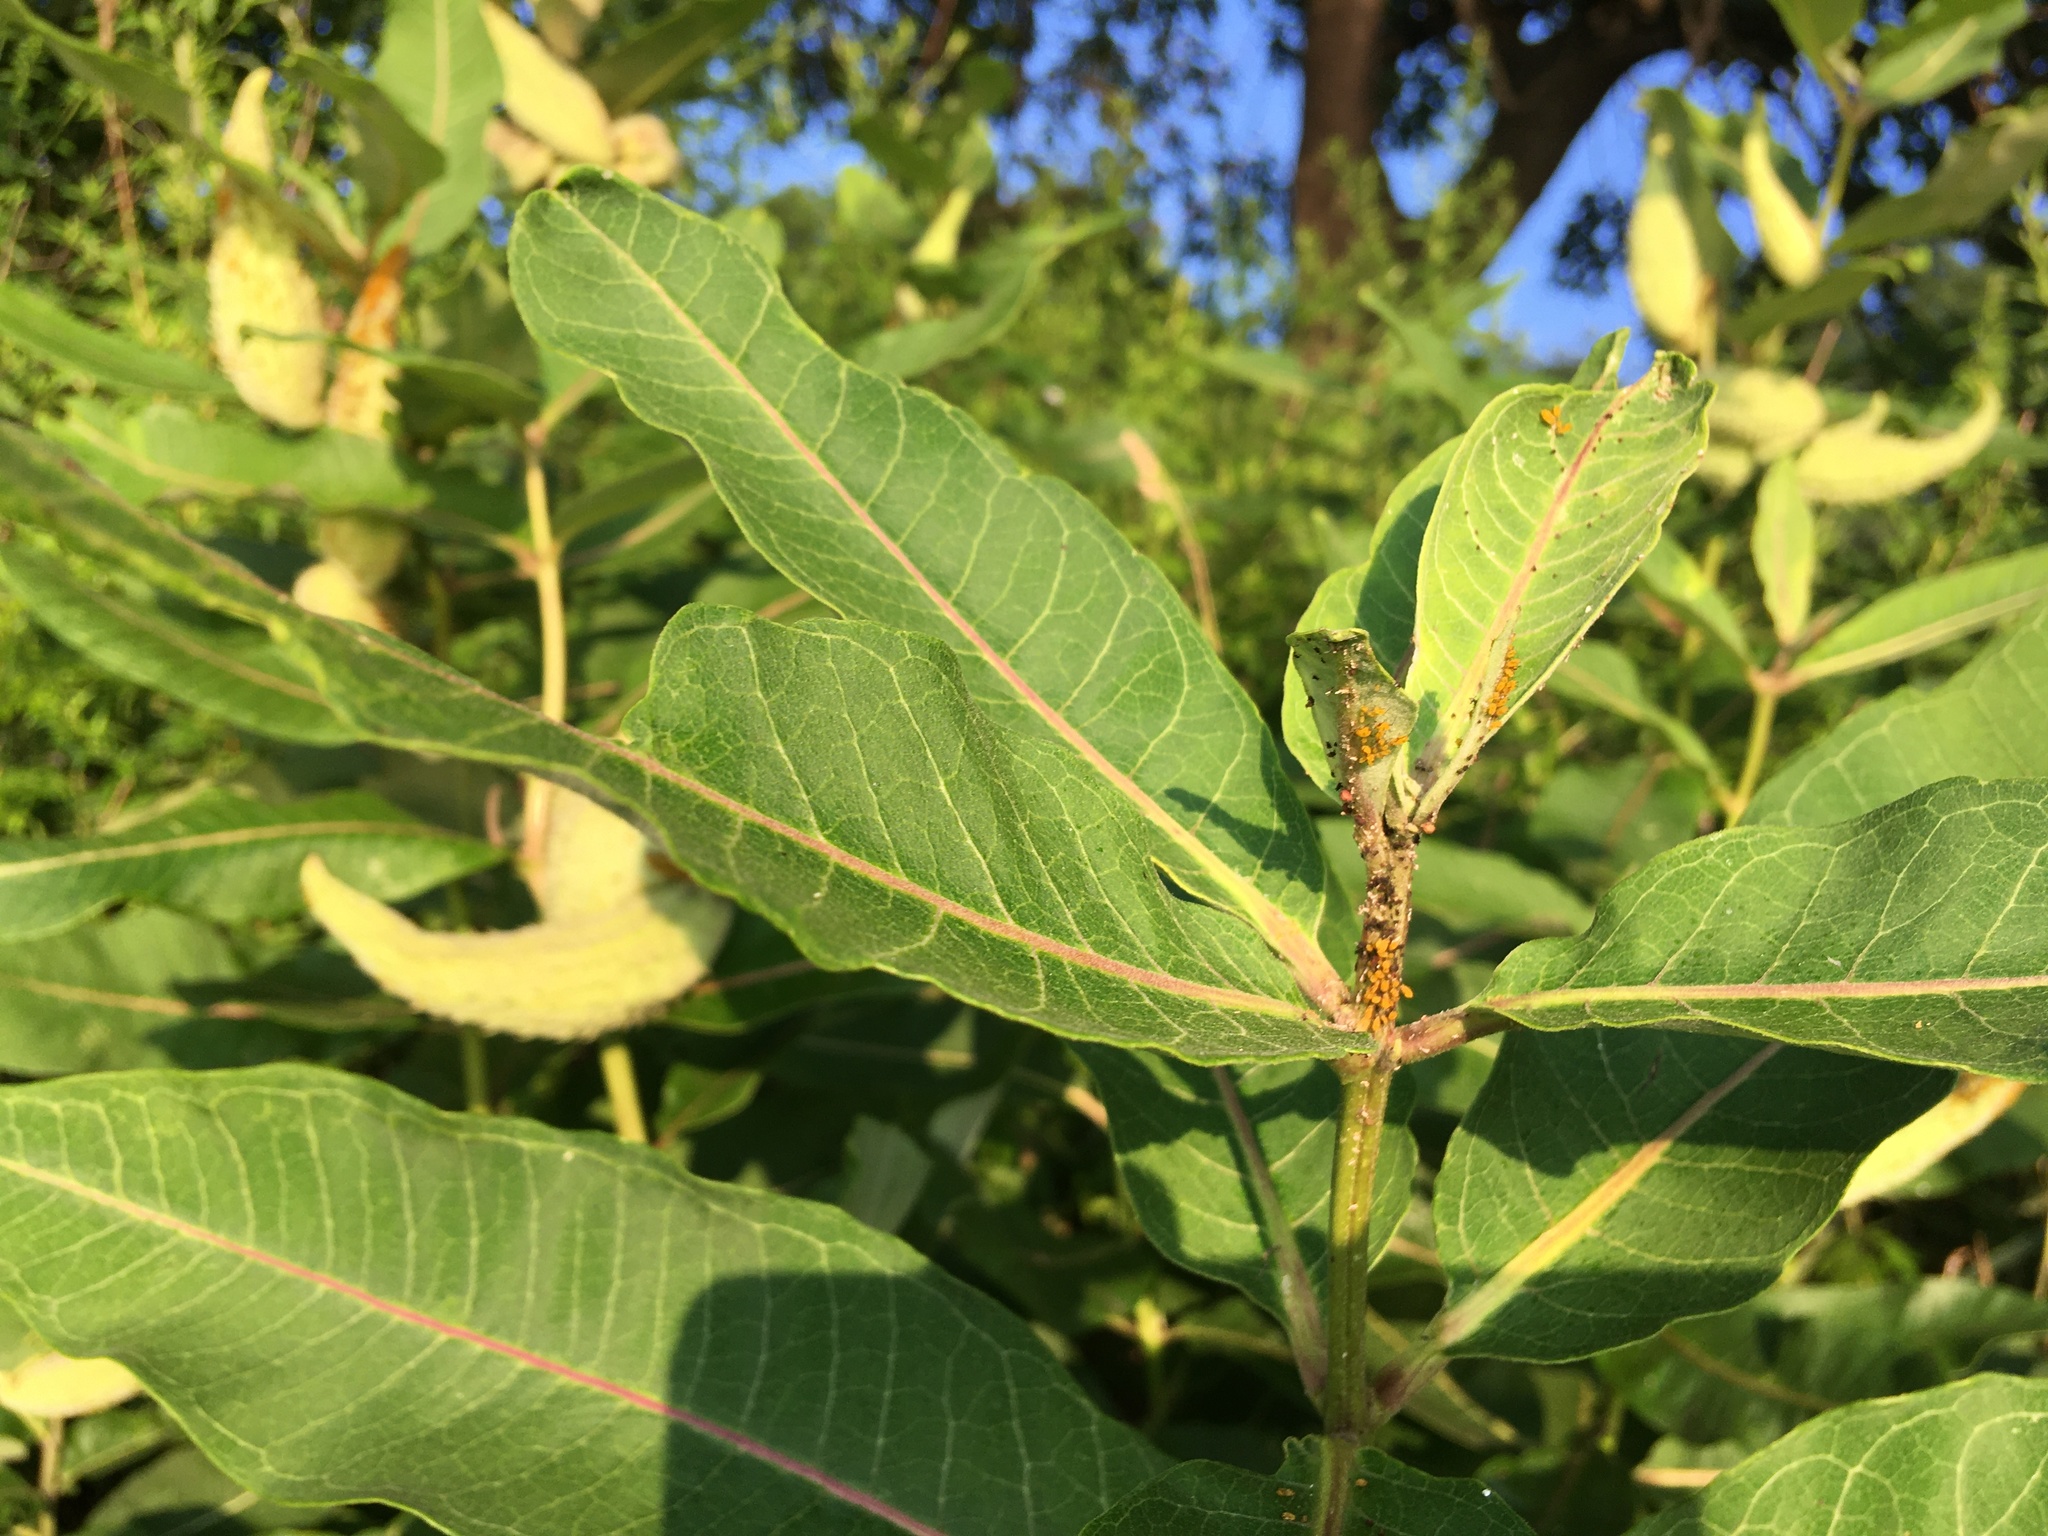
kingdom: Plantae
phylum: Tracheophyta
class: Magnoliopsida
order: Gentianales
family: Apocynaceae
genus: Asclepias
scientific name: Asclepias syriaca
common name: Common milkweed
